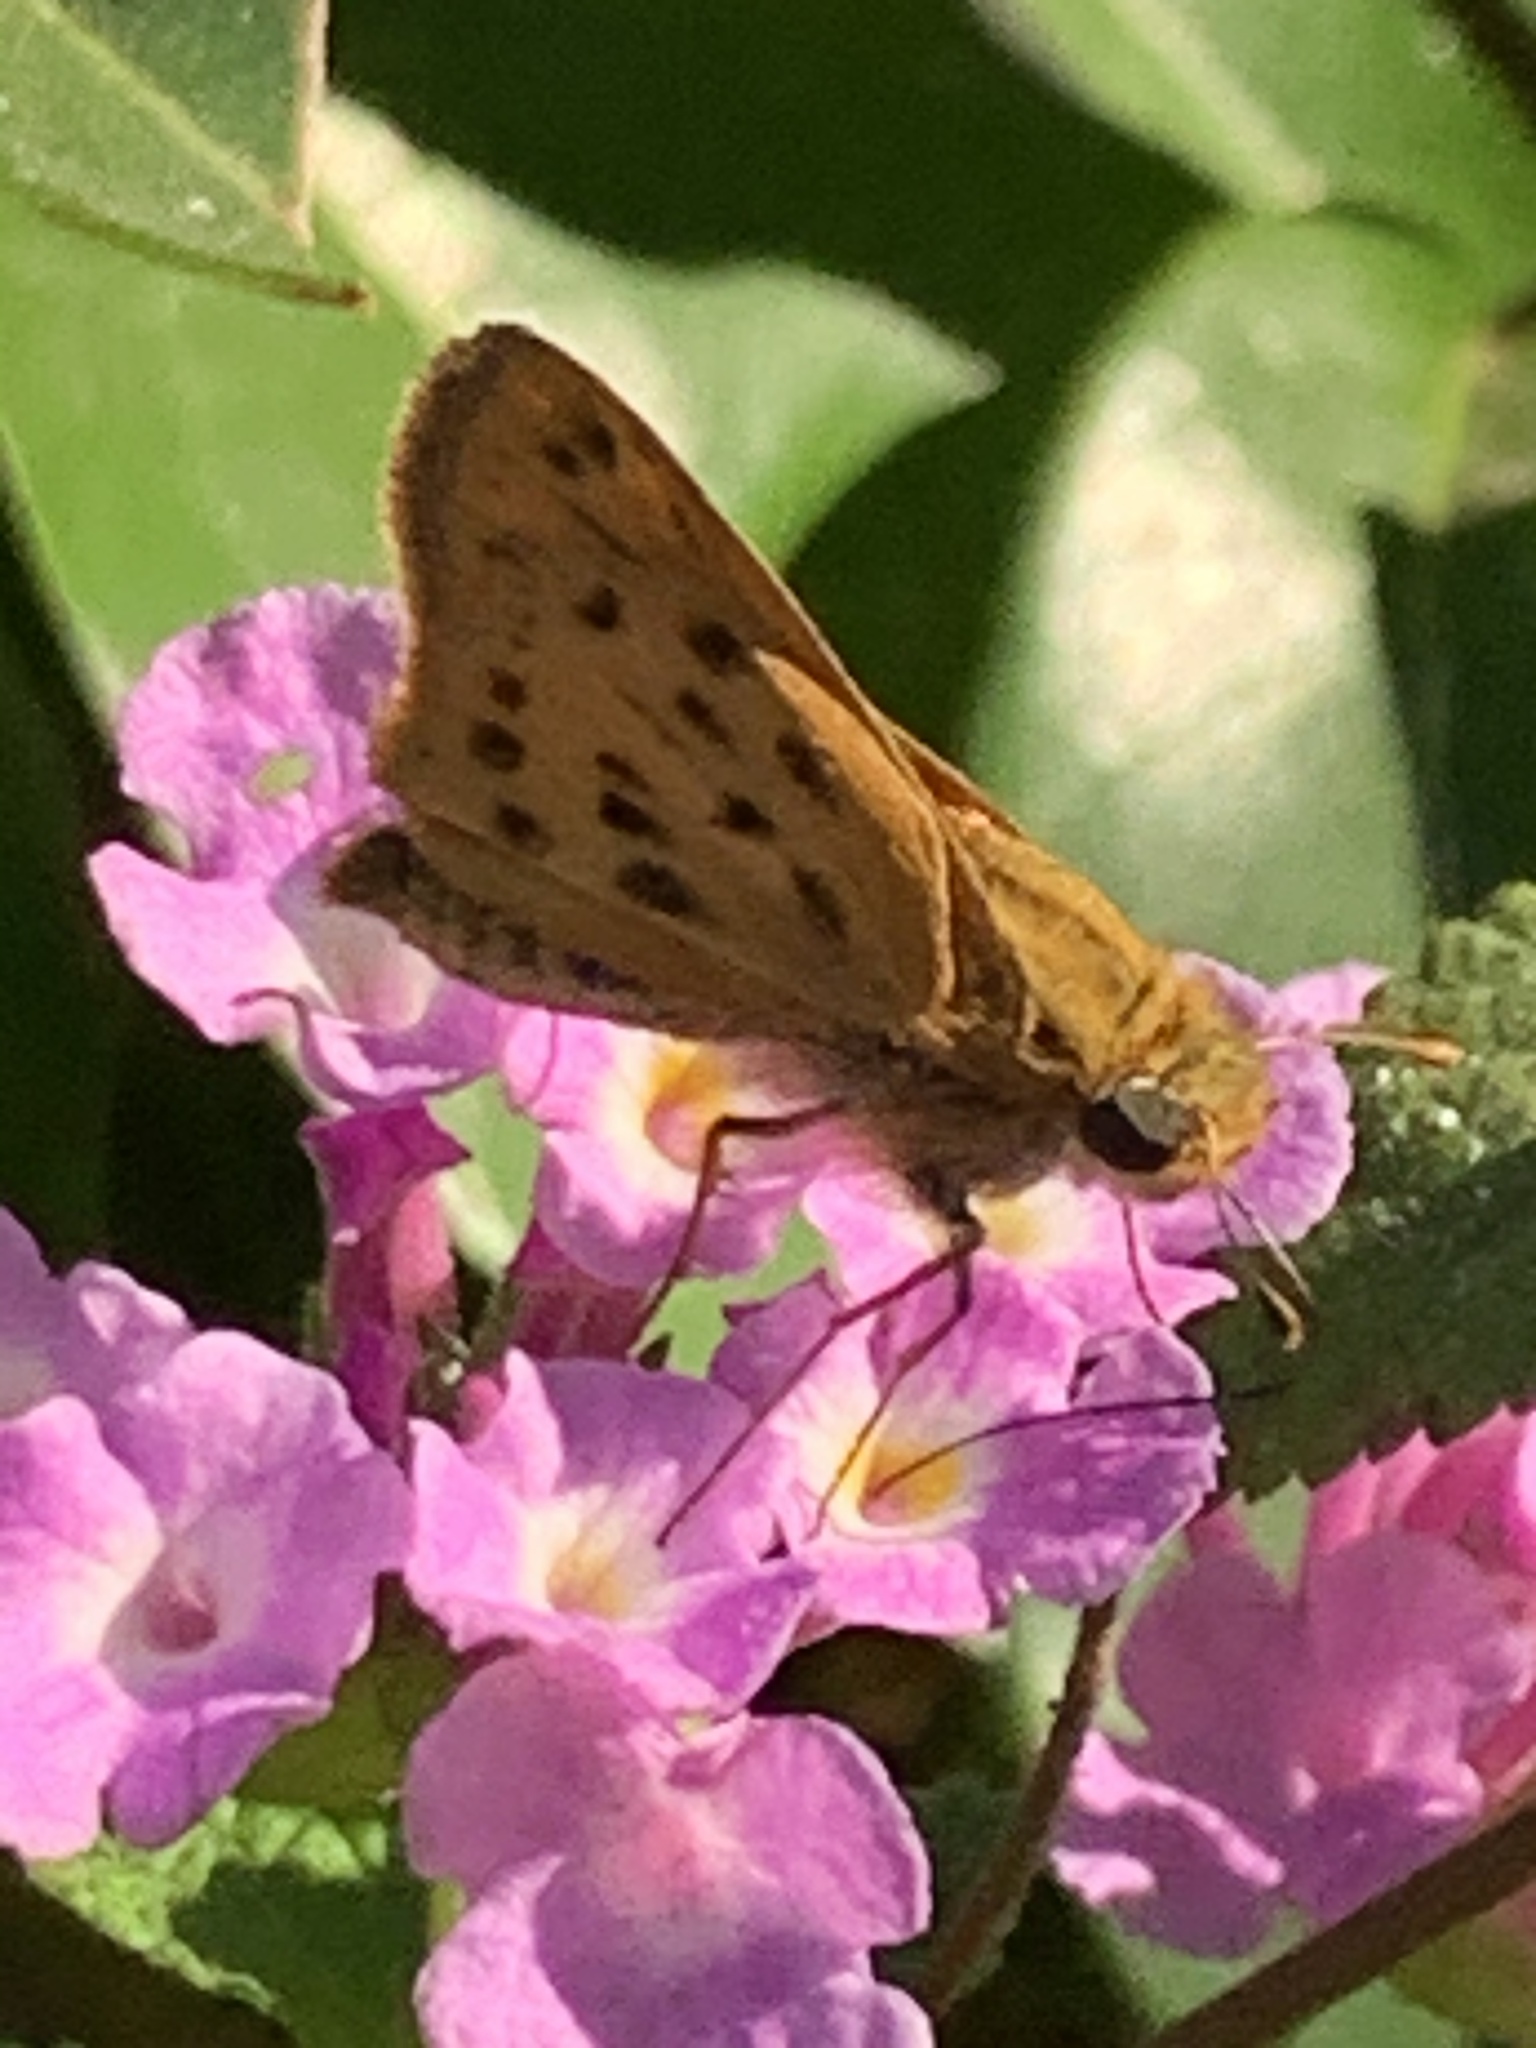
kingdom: Animalia
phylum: Arthropoda
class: Insecta
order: Lepidoptera
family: Hesperiidae
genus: Hylephila
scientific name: Hylephila phyleus
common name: Fiery skipper
